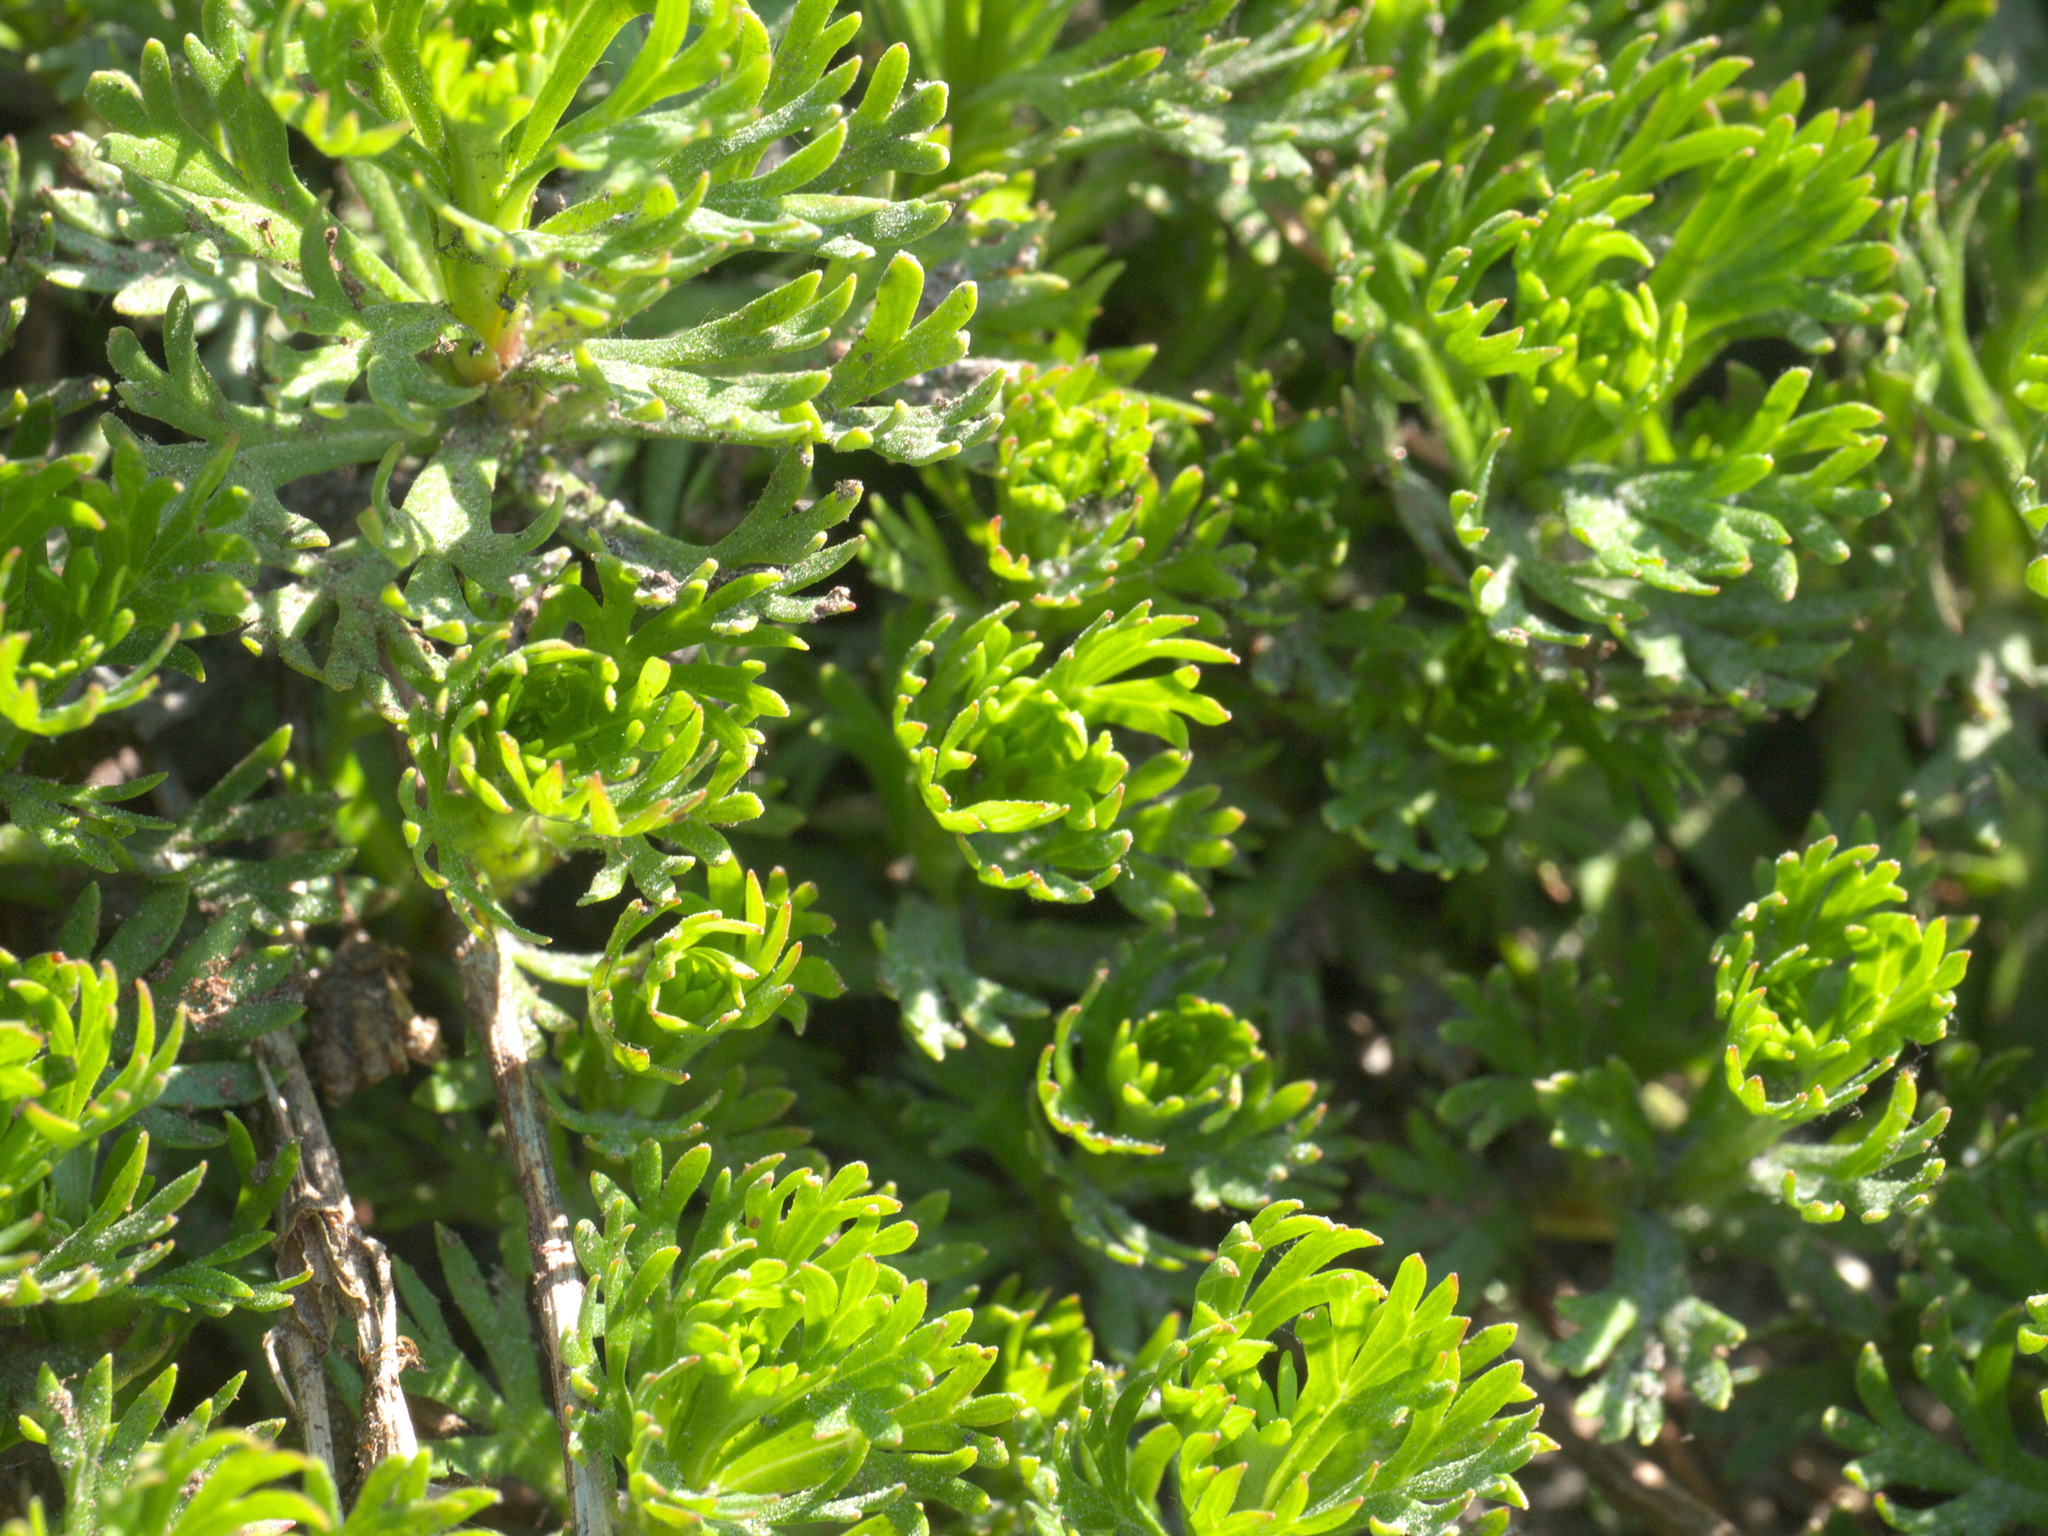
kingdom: Plantae
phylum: Tracheophyta
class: Magnoliopsida
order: Rosales
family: Rosaceae
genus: Luetkea
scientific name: Luetkea pectinata
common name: Partridgefoot
